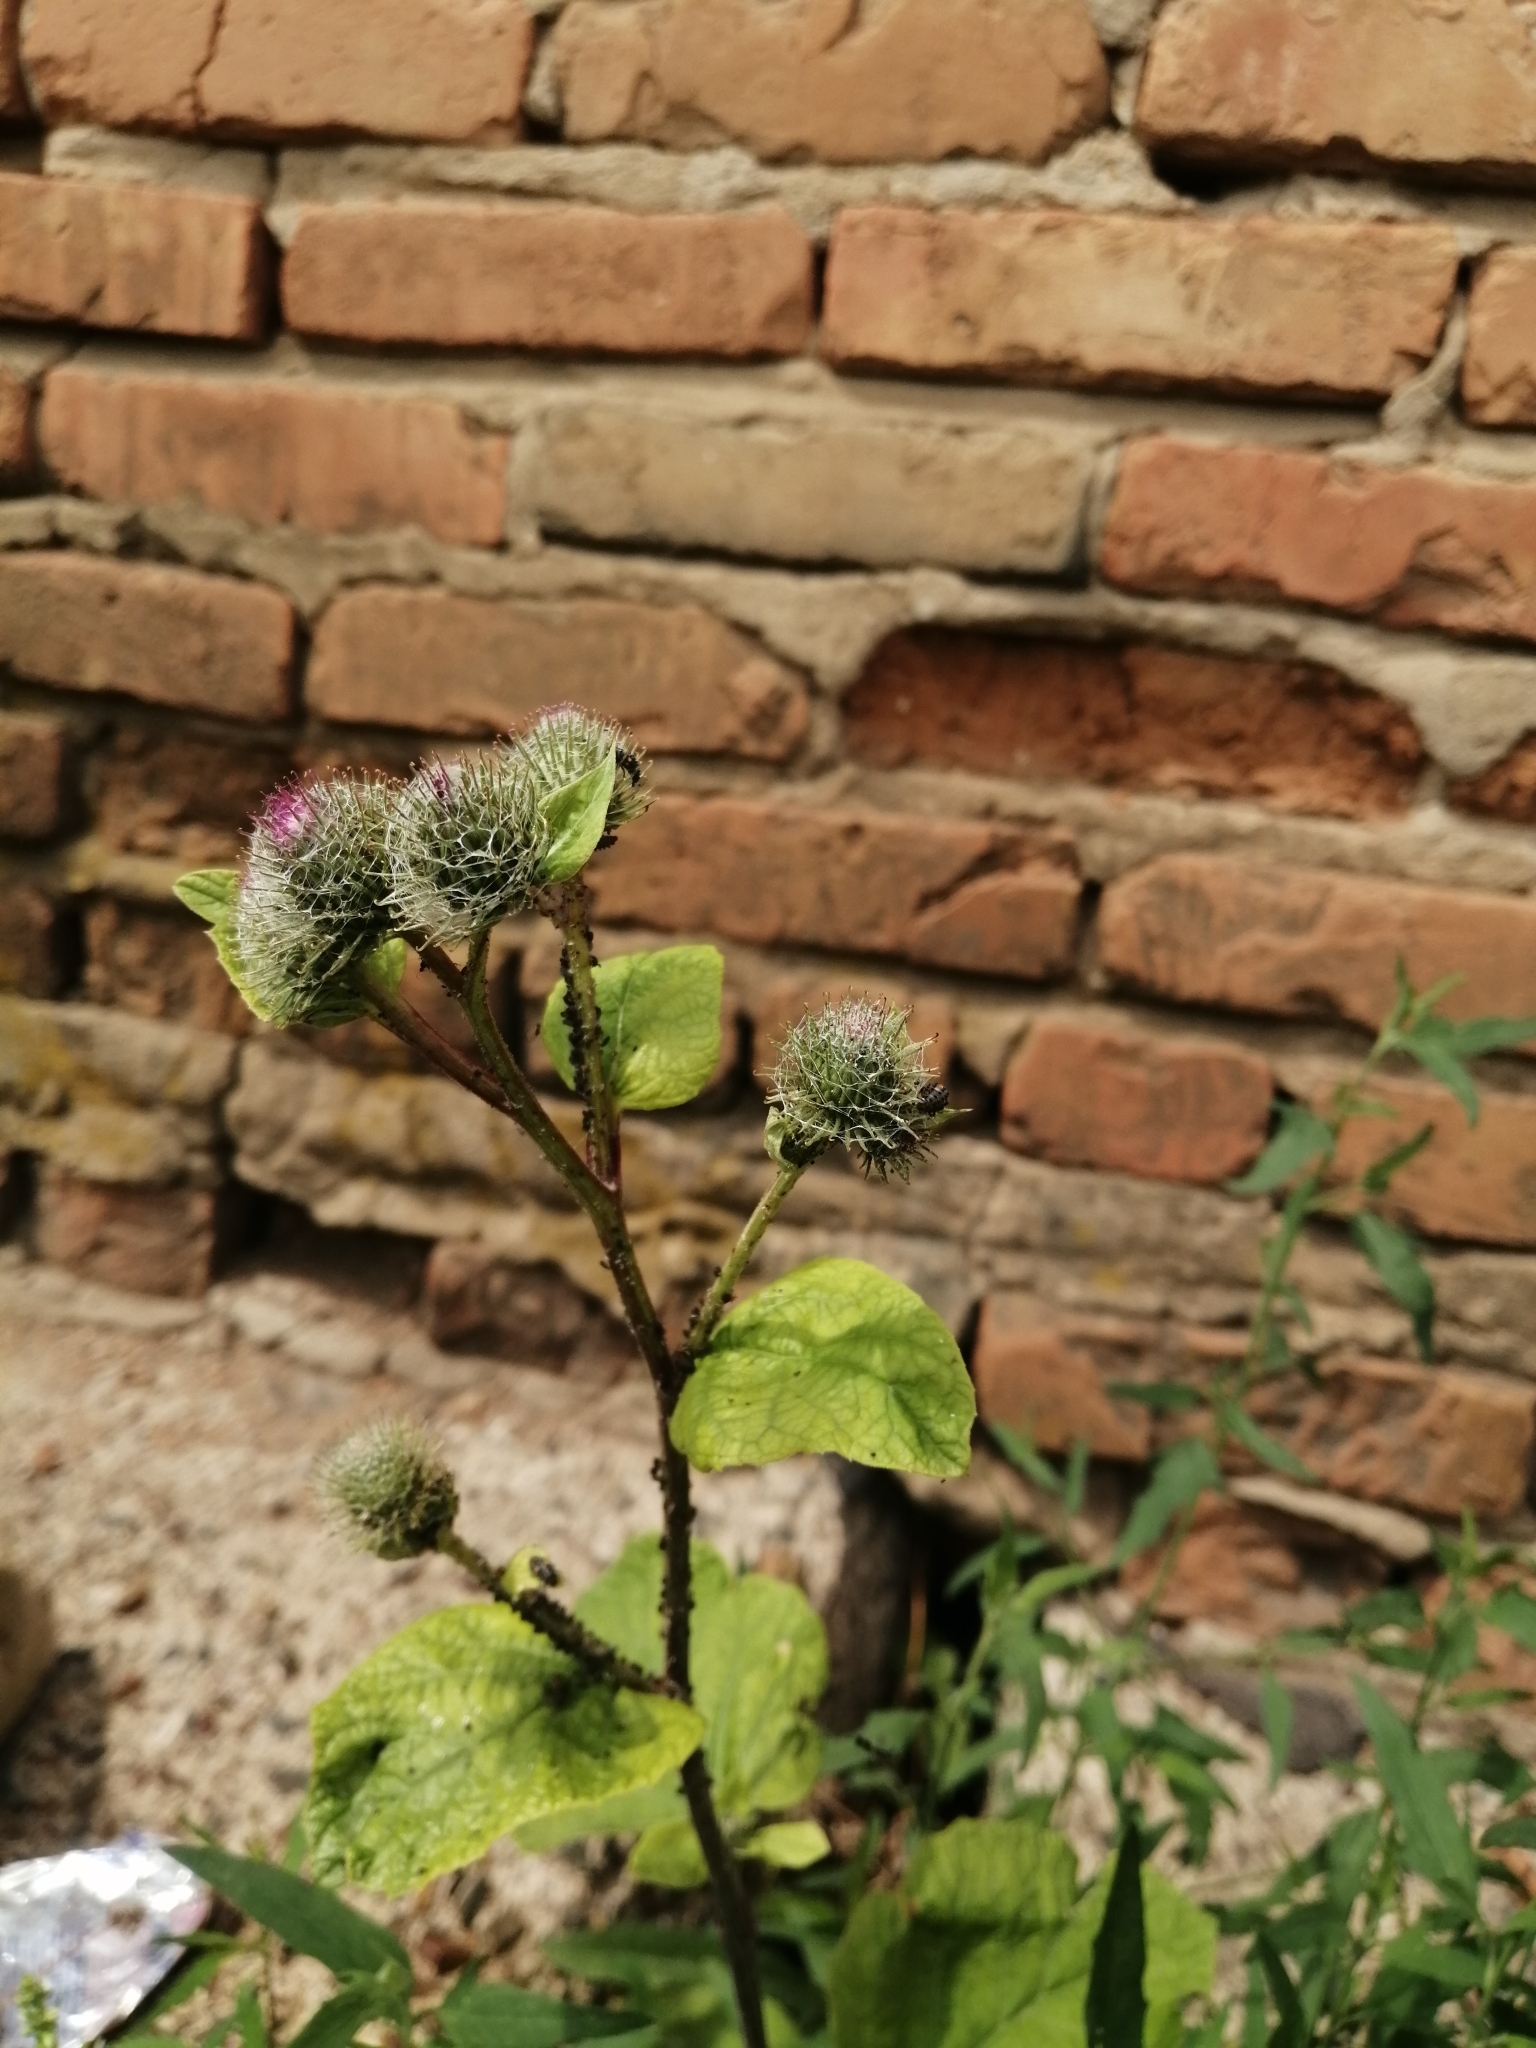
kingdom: Plantae
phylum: Tracheophyta
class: Magnoliopsida
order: Asterales
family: Asteraceae
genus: Arctium
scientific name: Arctium tomentosum
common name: Woolly burdock
